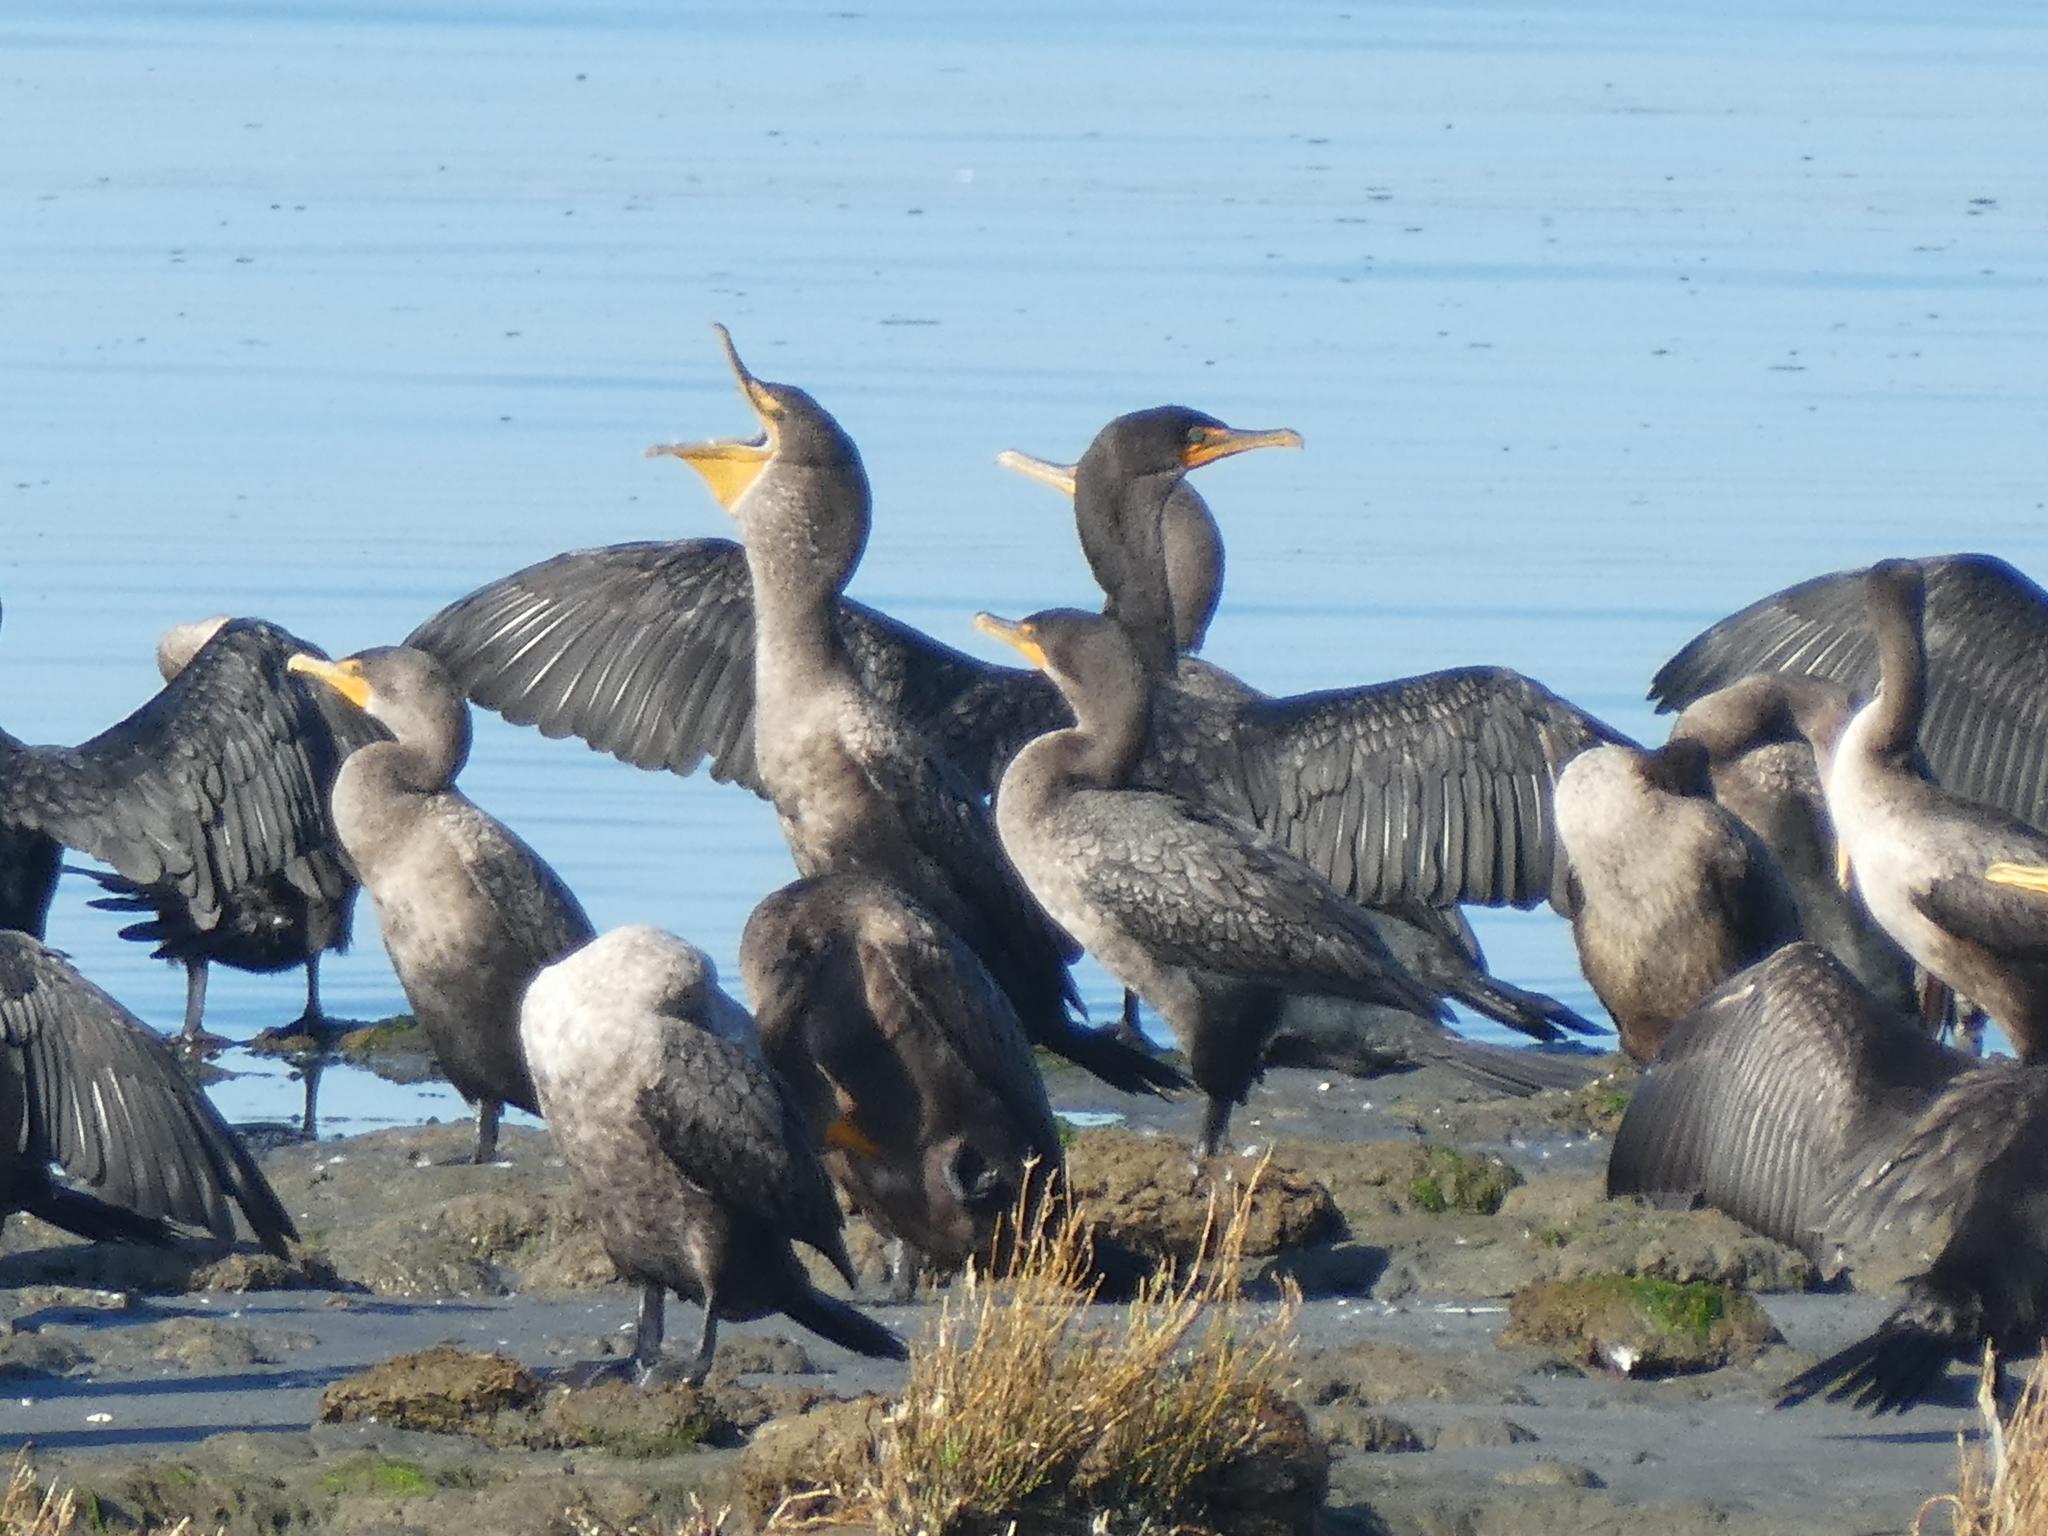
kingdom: Animalia
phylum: Chordata
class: Aves
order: Suliformes
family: Phalacrocoracidae
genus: Phalacrocorax
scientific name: Phalacrocorax auritus
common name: Double-crested cormorant
